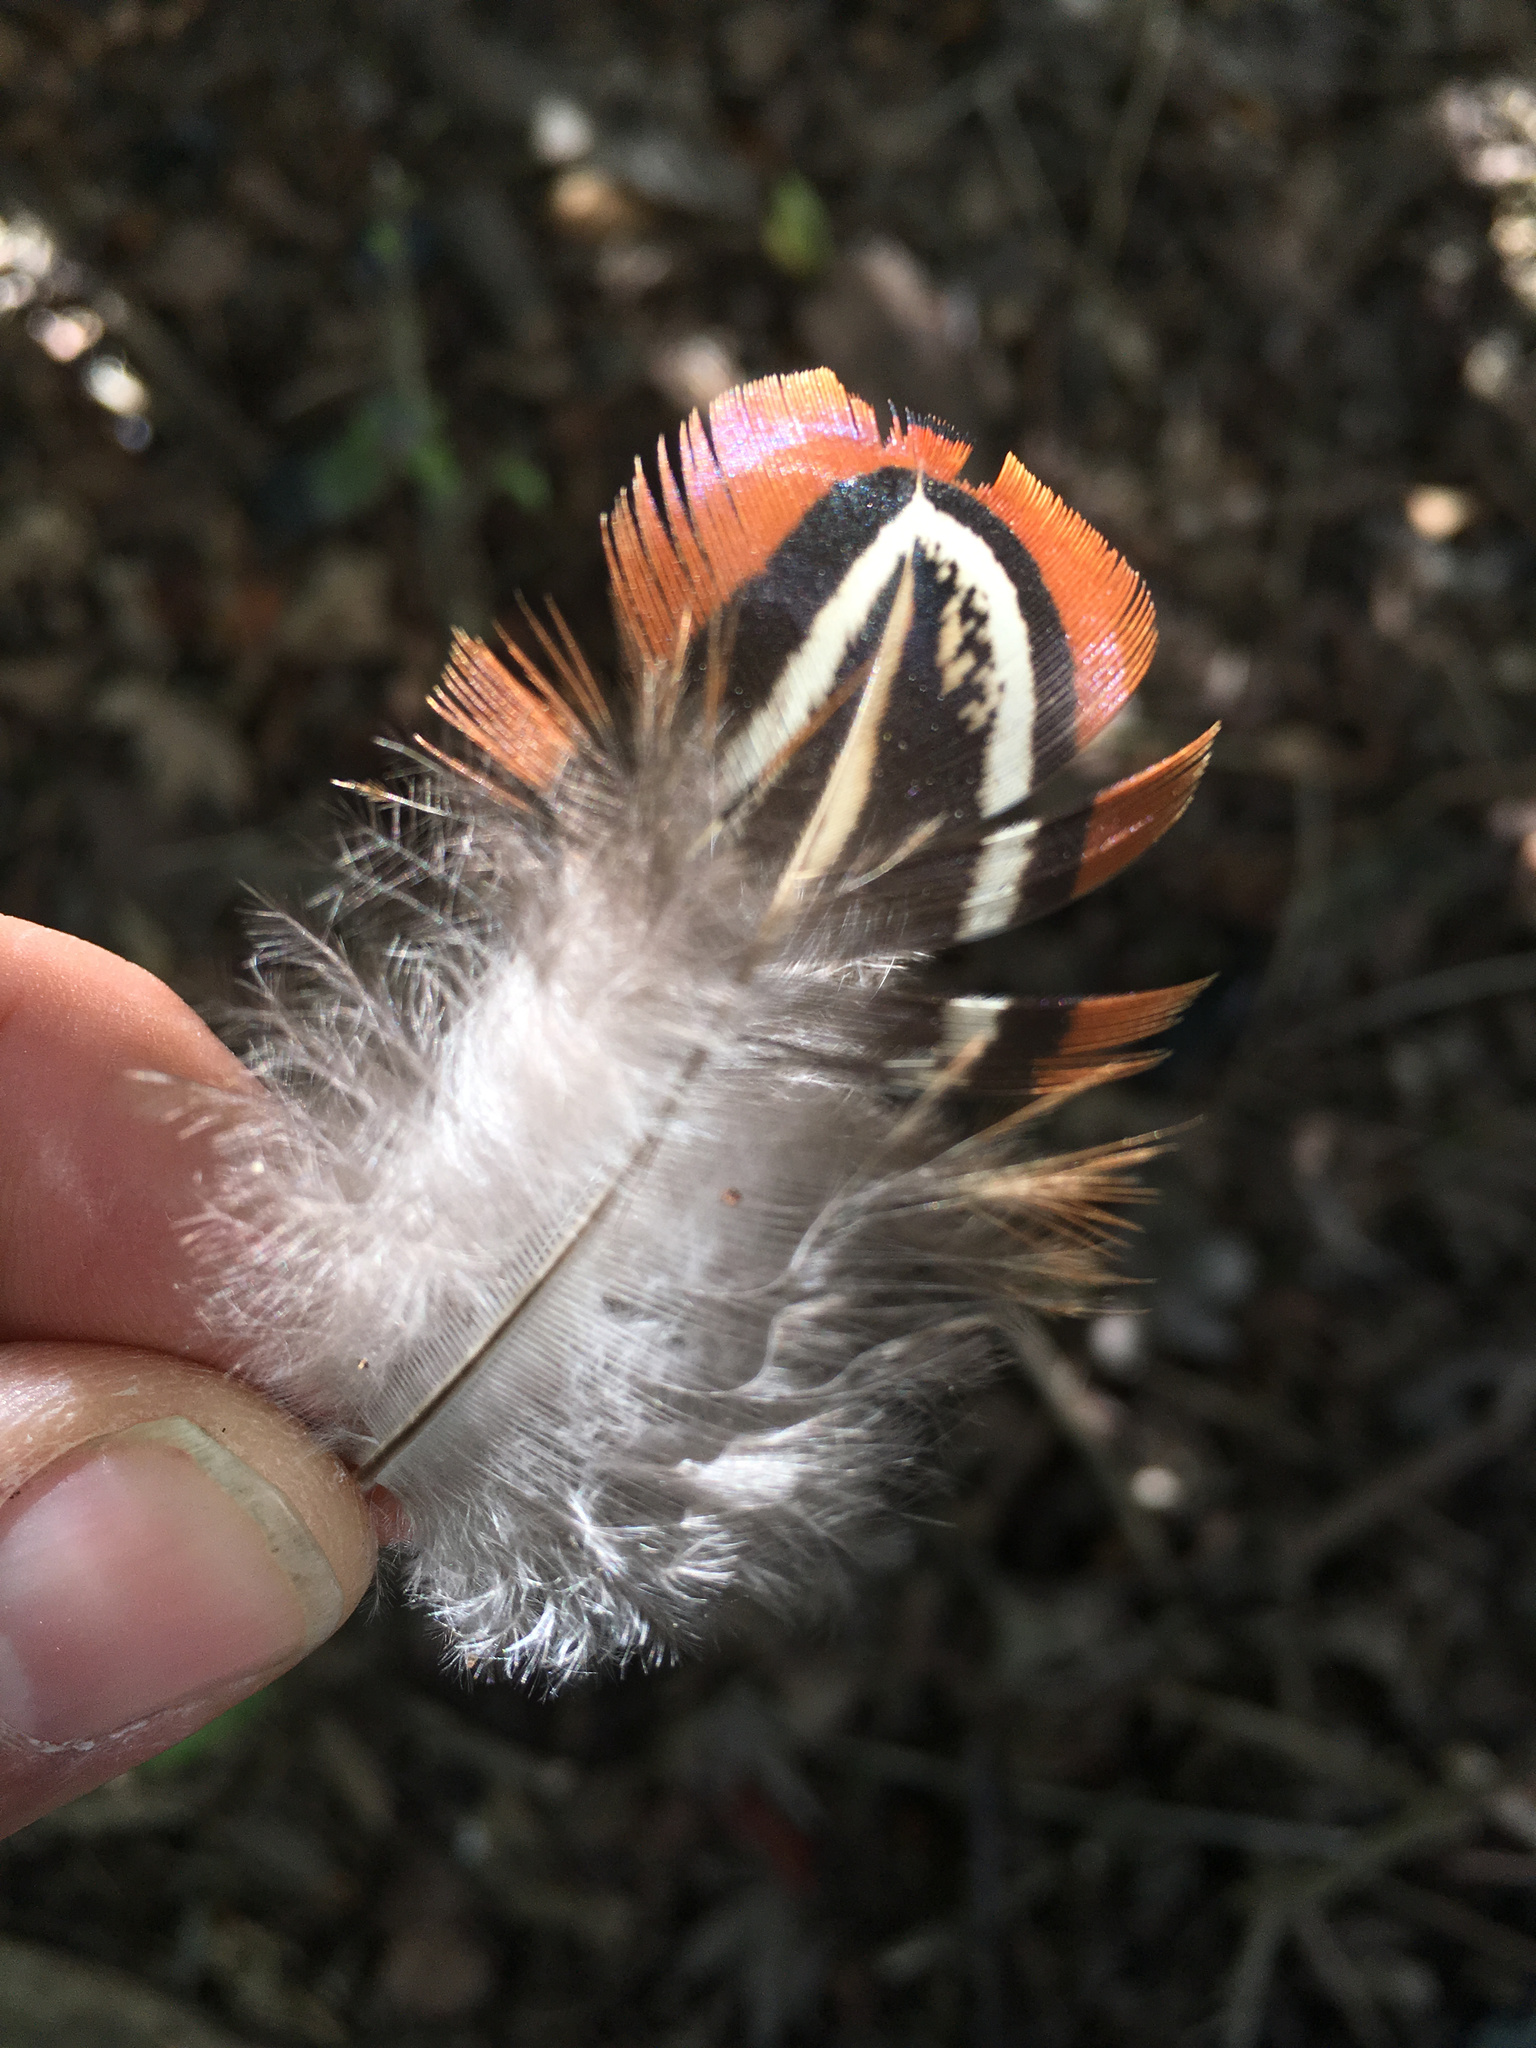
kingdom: Animalia
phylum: Chordata
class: Aves
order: Galliformes
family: Phasianidae
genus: Phasianus
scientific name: Phasianus colchicus
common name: Common pheasant
